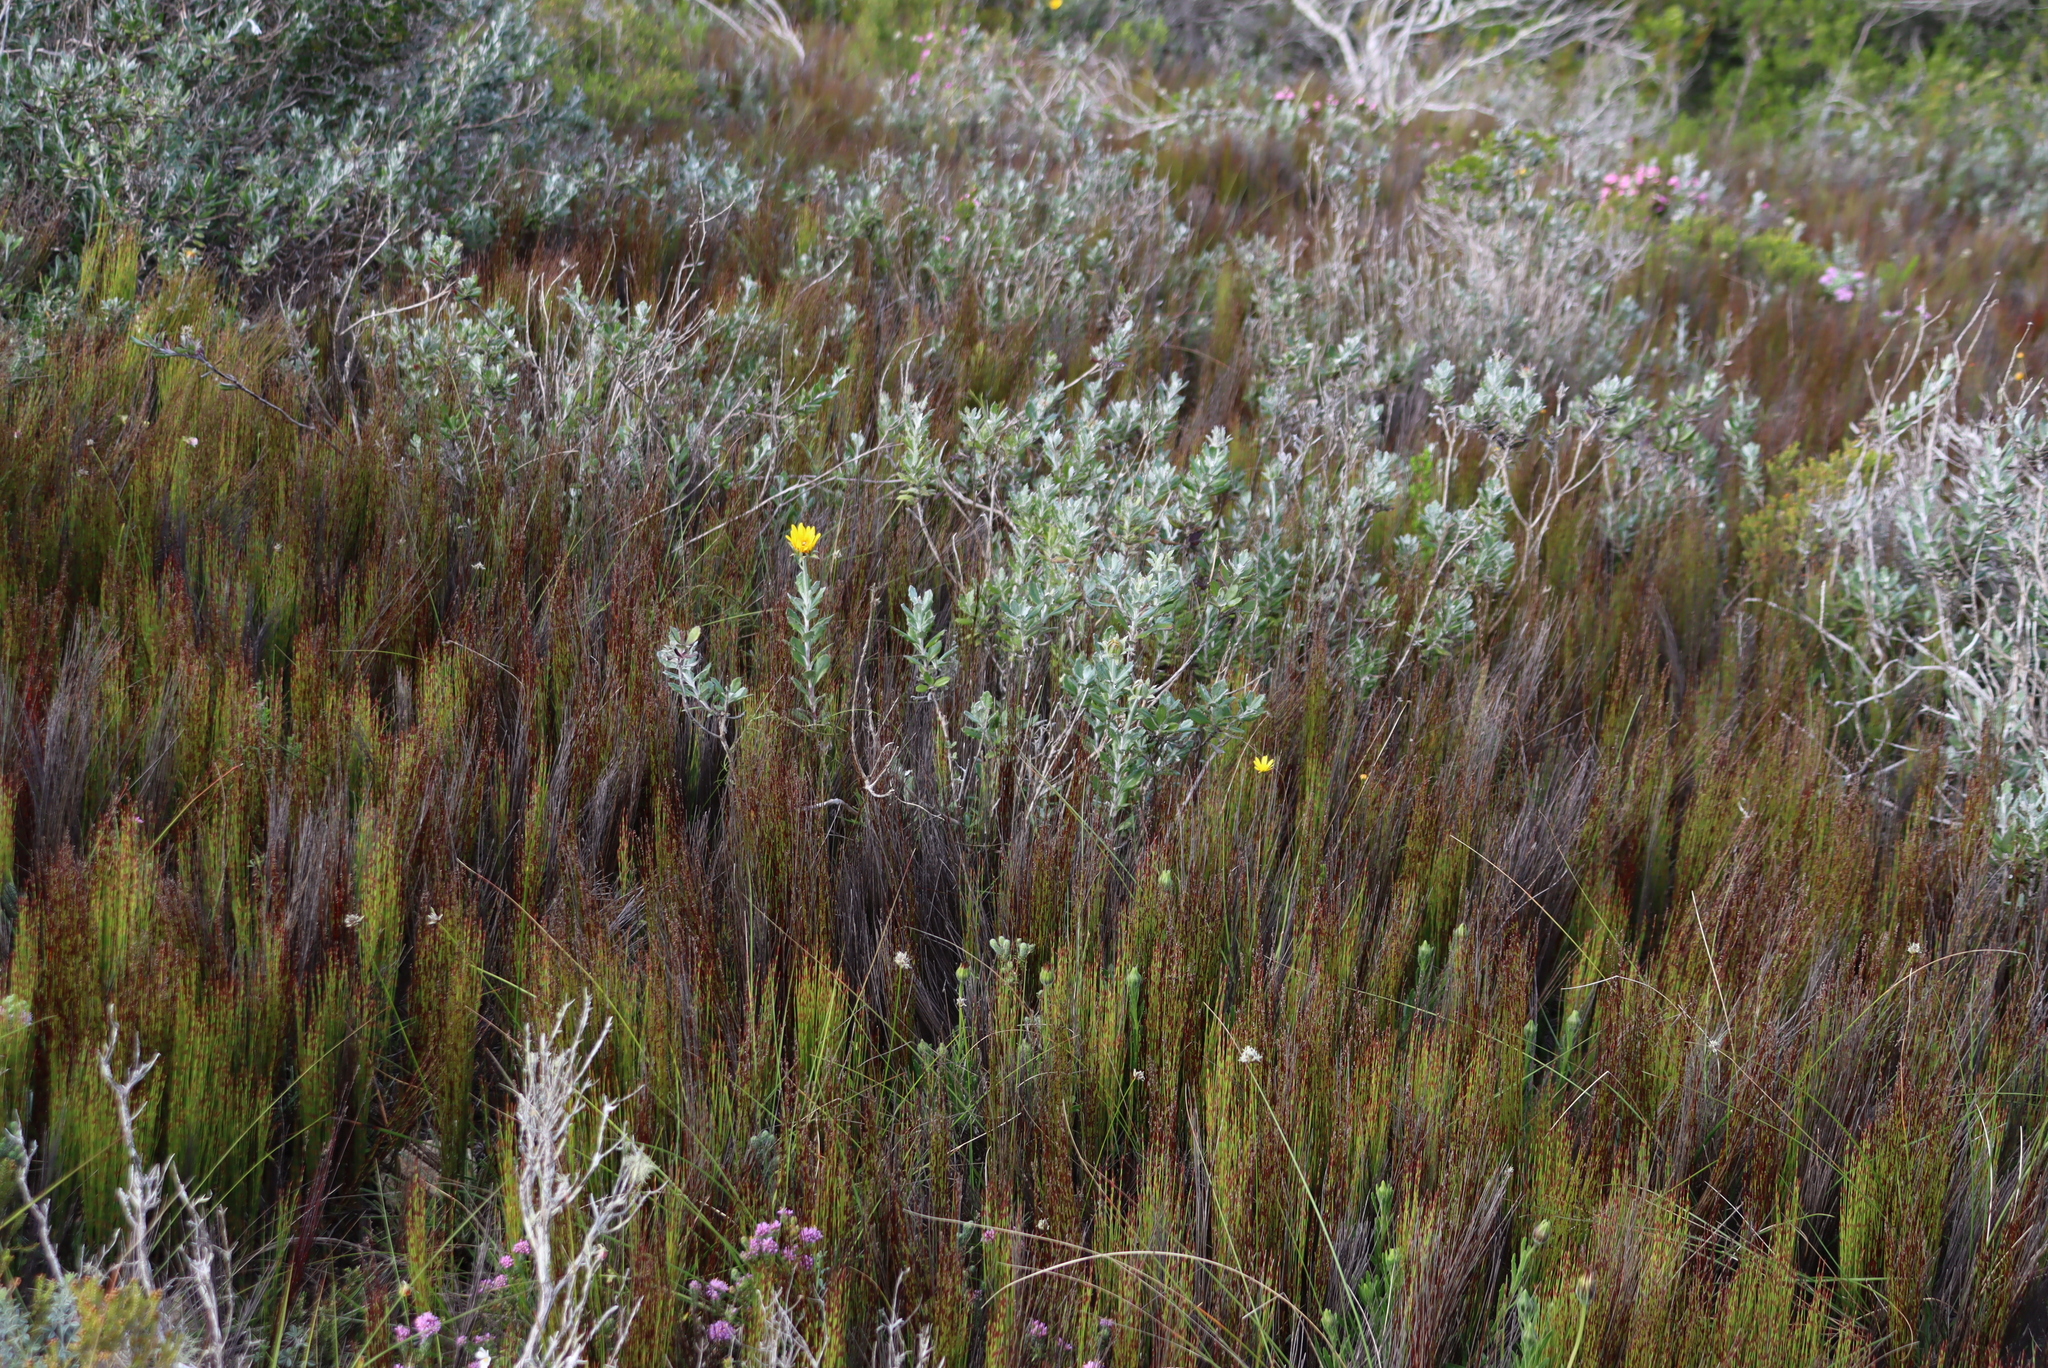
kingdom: Plantae
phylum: Tracheophyta
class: Liliopsida
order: Poales
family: Restionaceae
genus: Elegia
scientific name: Elegia microcarpa
